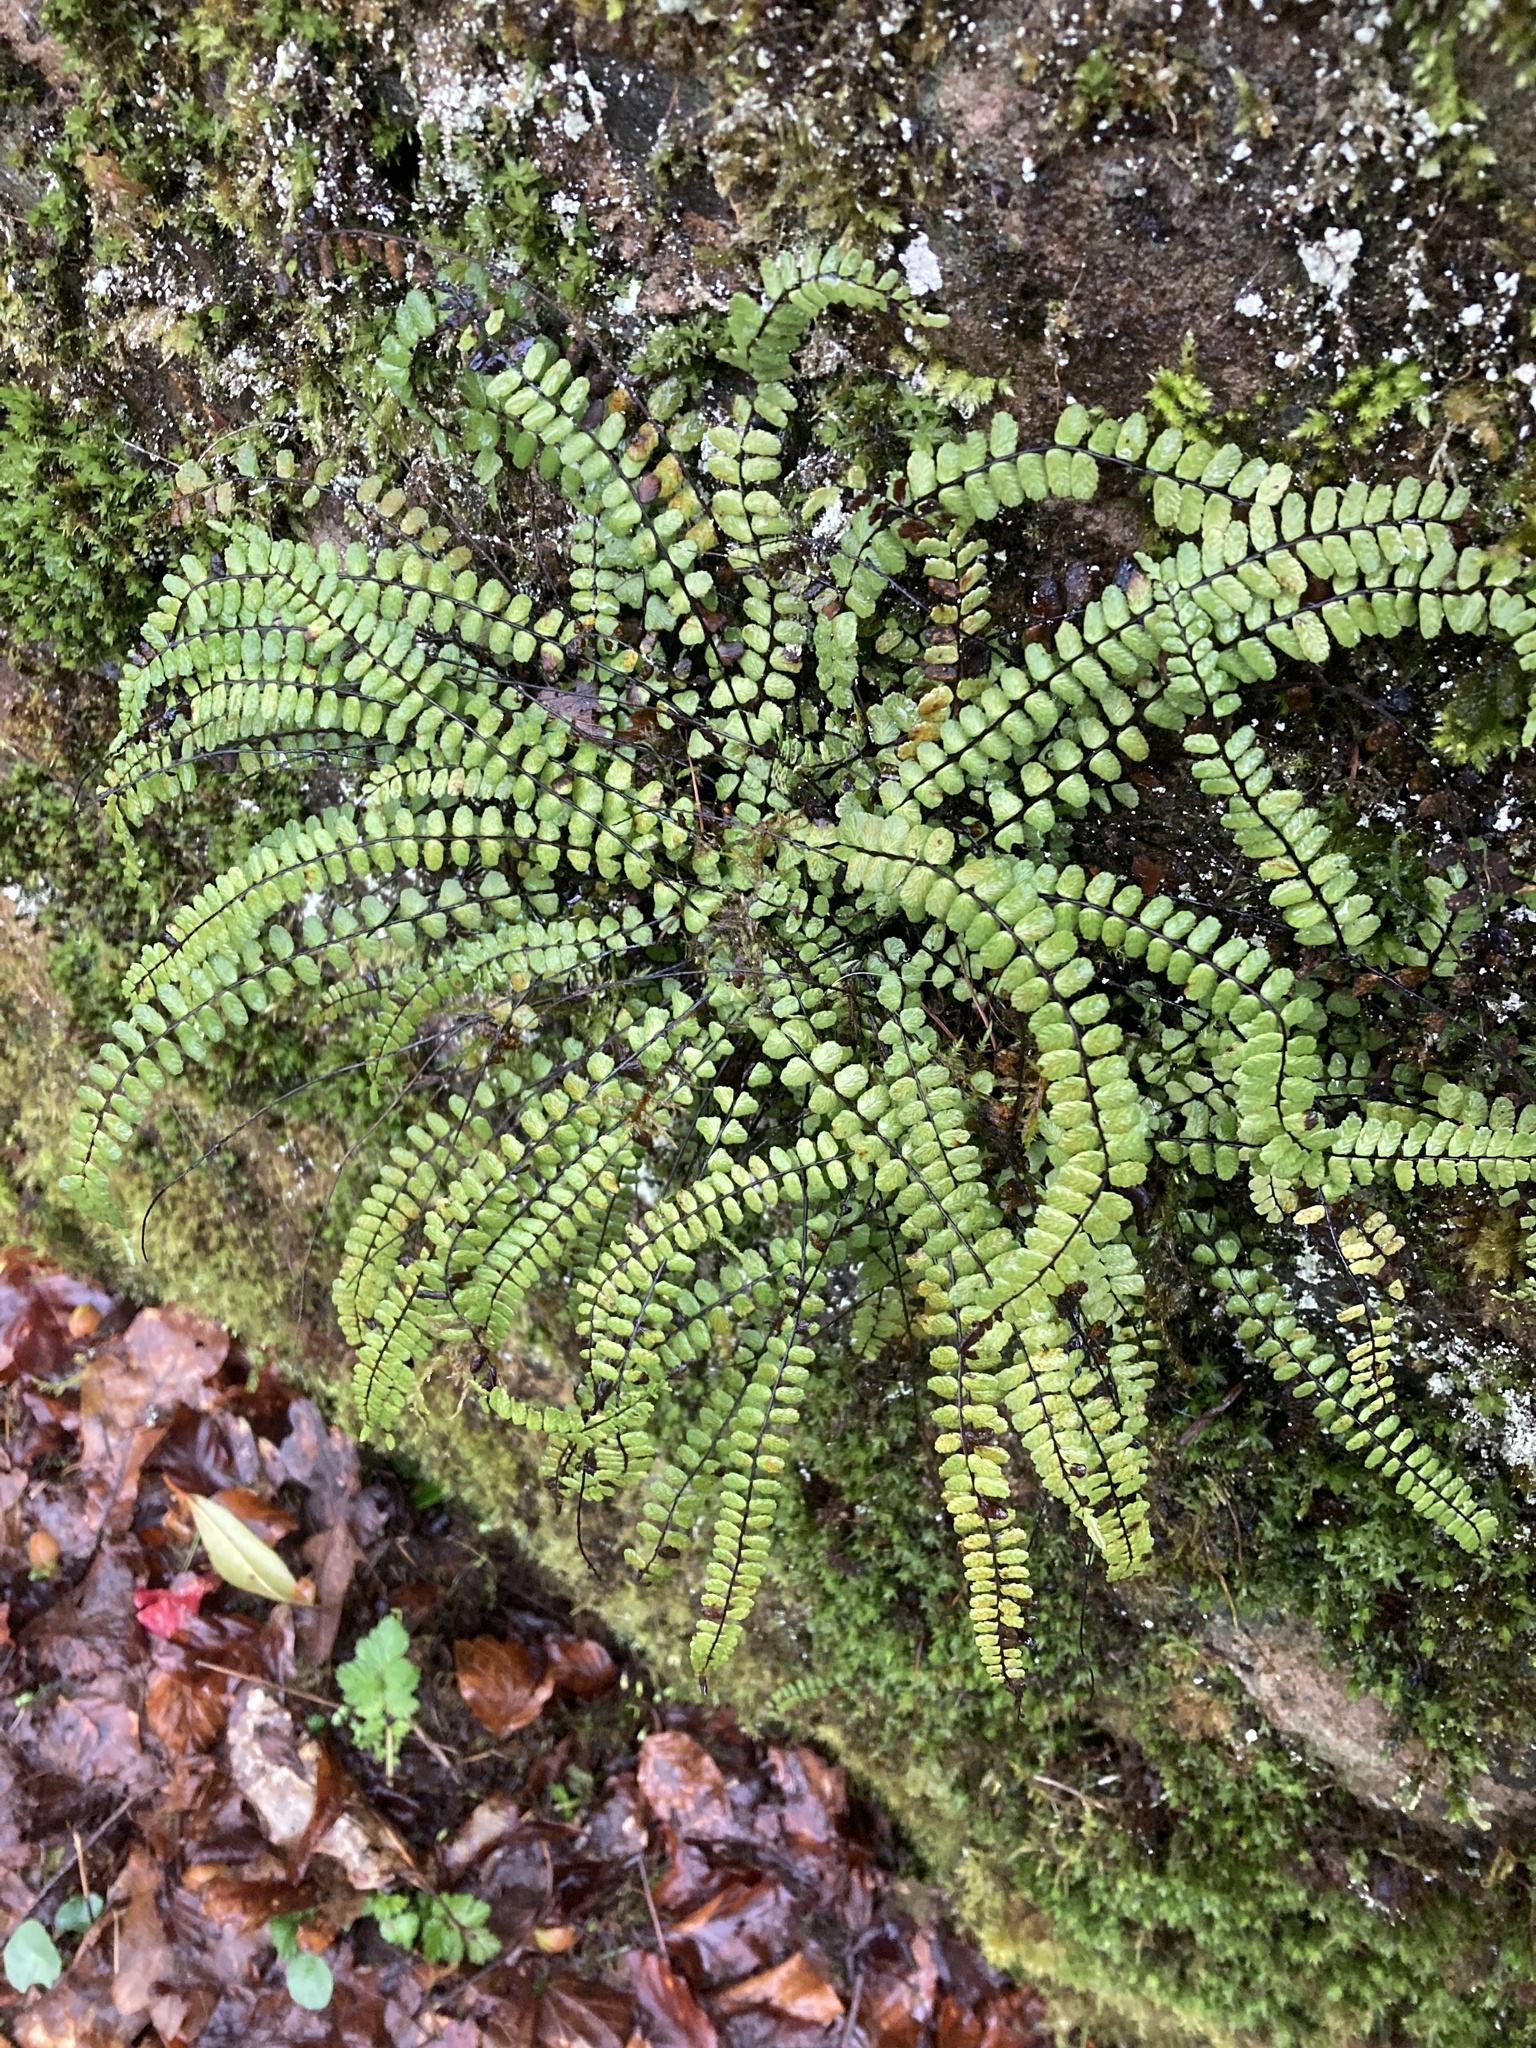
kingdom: Plantae
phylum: Tracheophyta
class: Polypodiopsida
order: Polypodiales
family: Aspleniaceae
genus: Asplenium
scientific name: Asplenium trichomanes
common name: Maidenhair spleenwort
